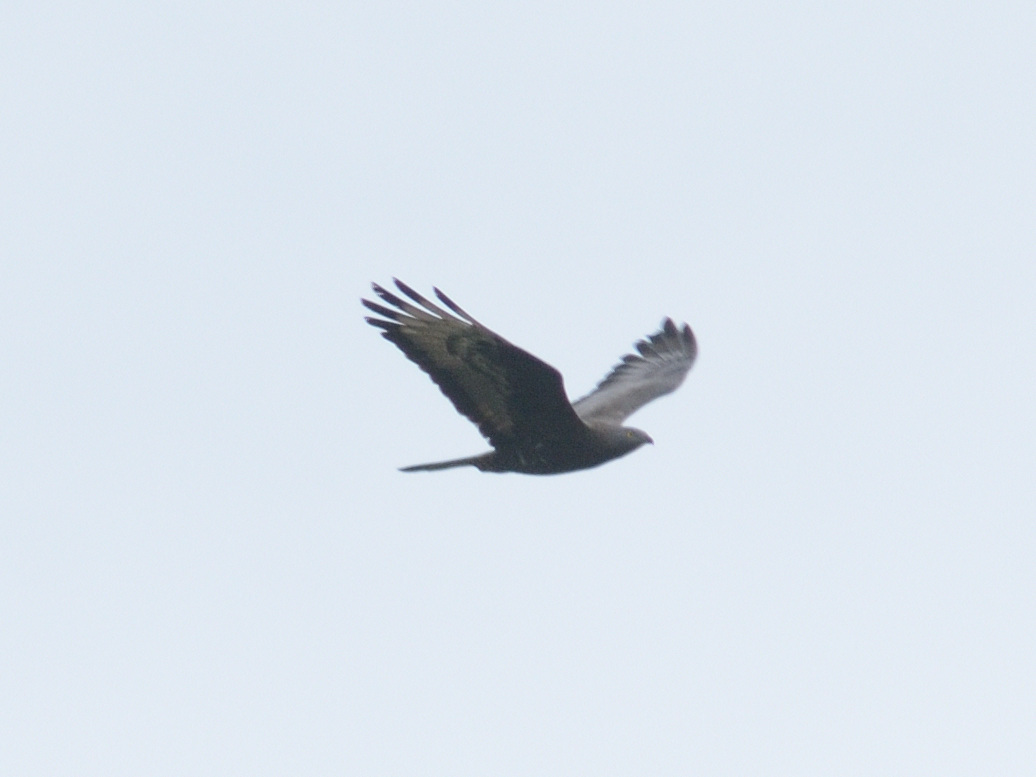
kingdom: Animalia
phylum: Chordata
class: Aves
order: Accipitriformes
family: Accipitridae
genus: Pernis
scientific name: Pernis apivorus
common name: European honey buzzard
